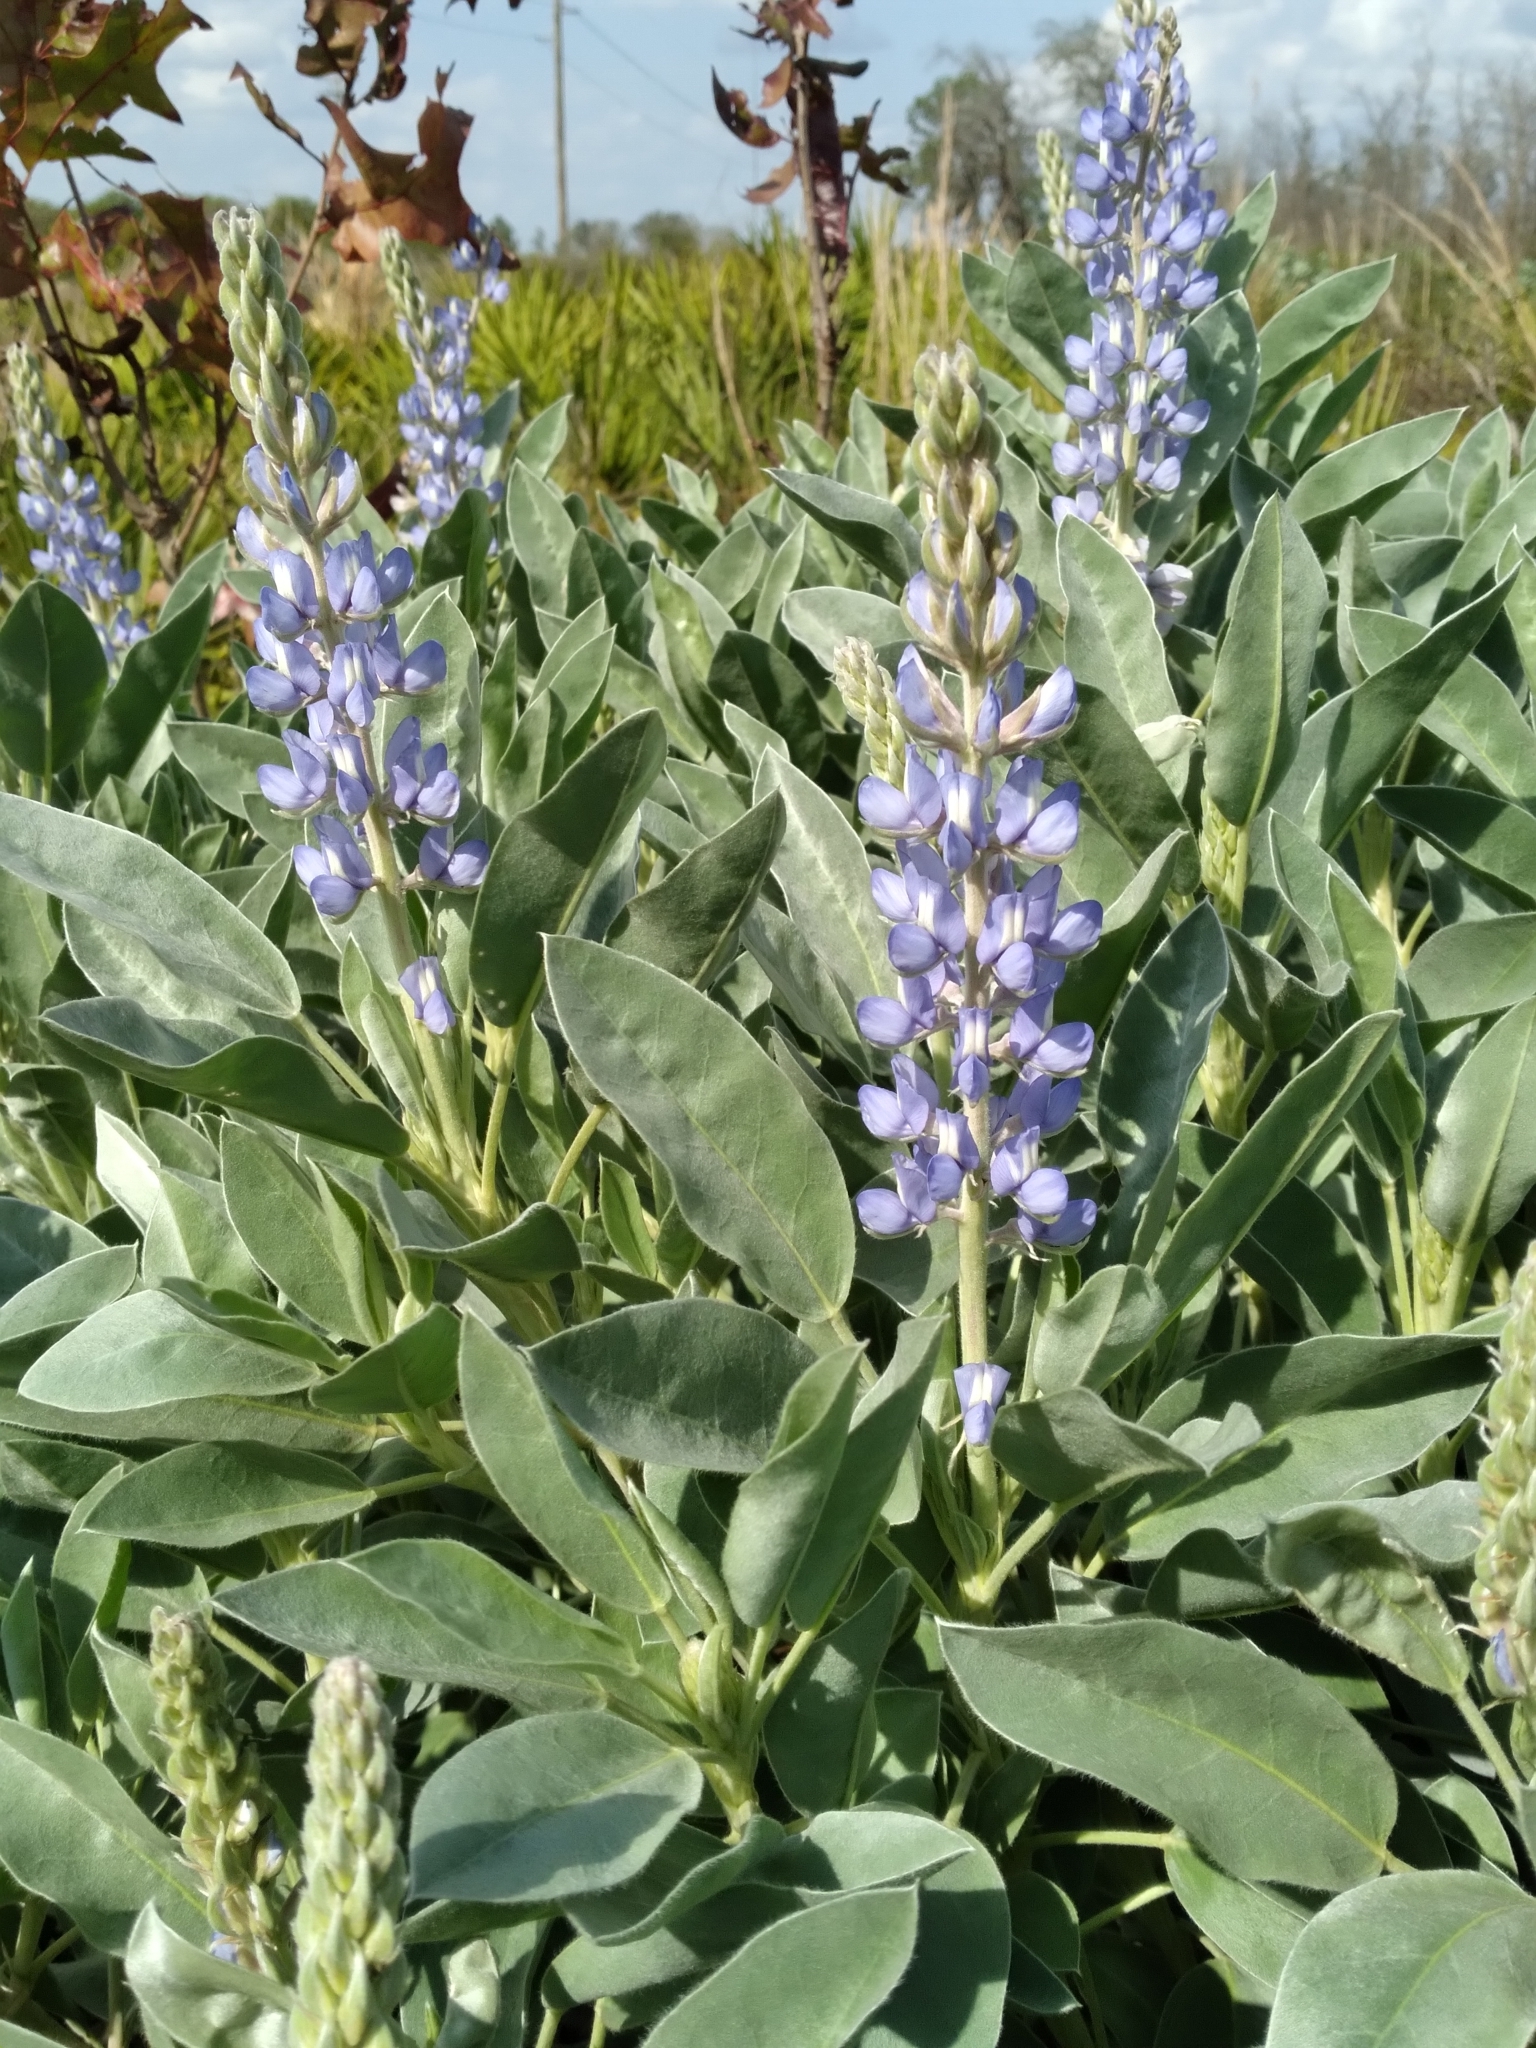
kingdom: Plantae
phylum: Tracheophyta
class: Magnoliopsida
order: Fabales
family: Fabaceae
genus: Lupinus
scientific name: Lupinus cumulicola
